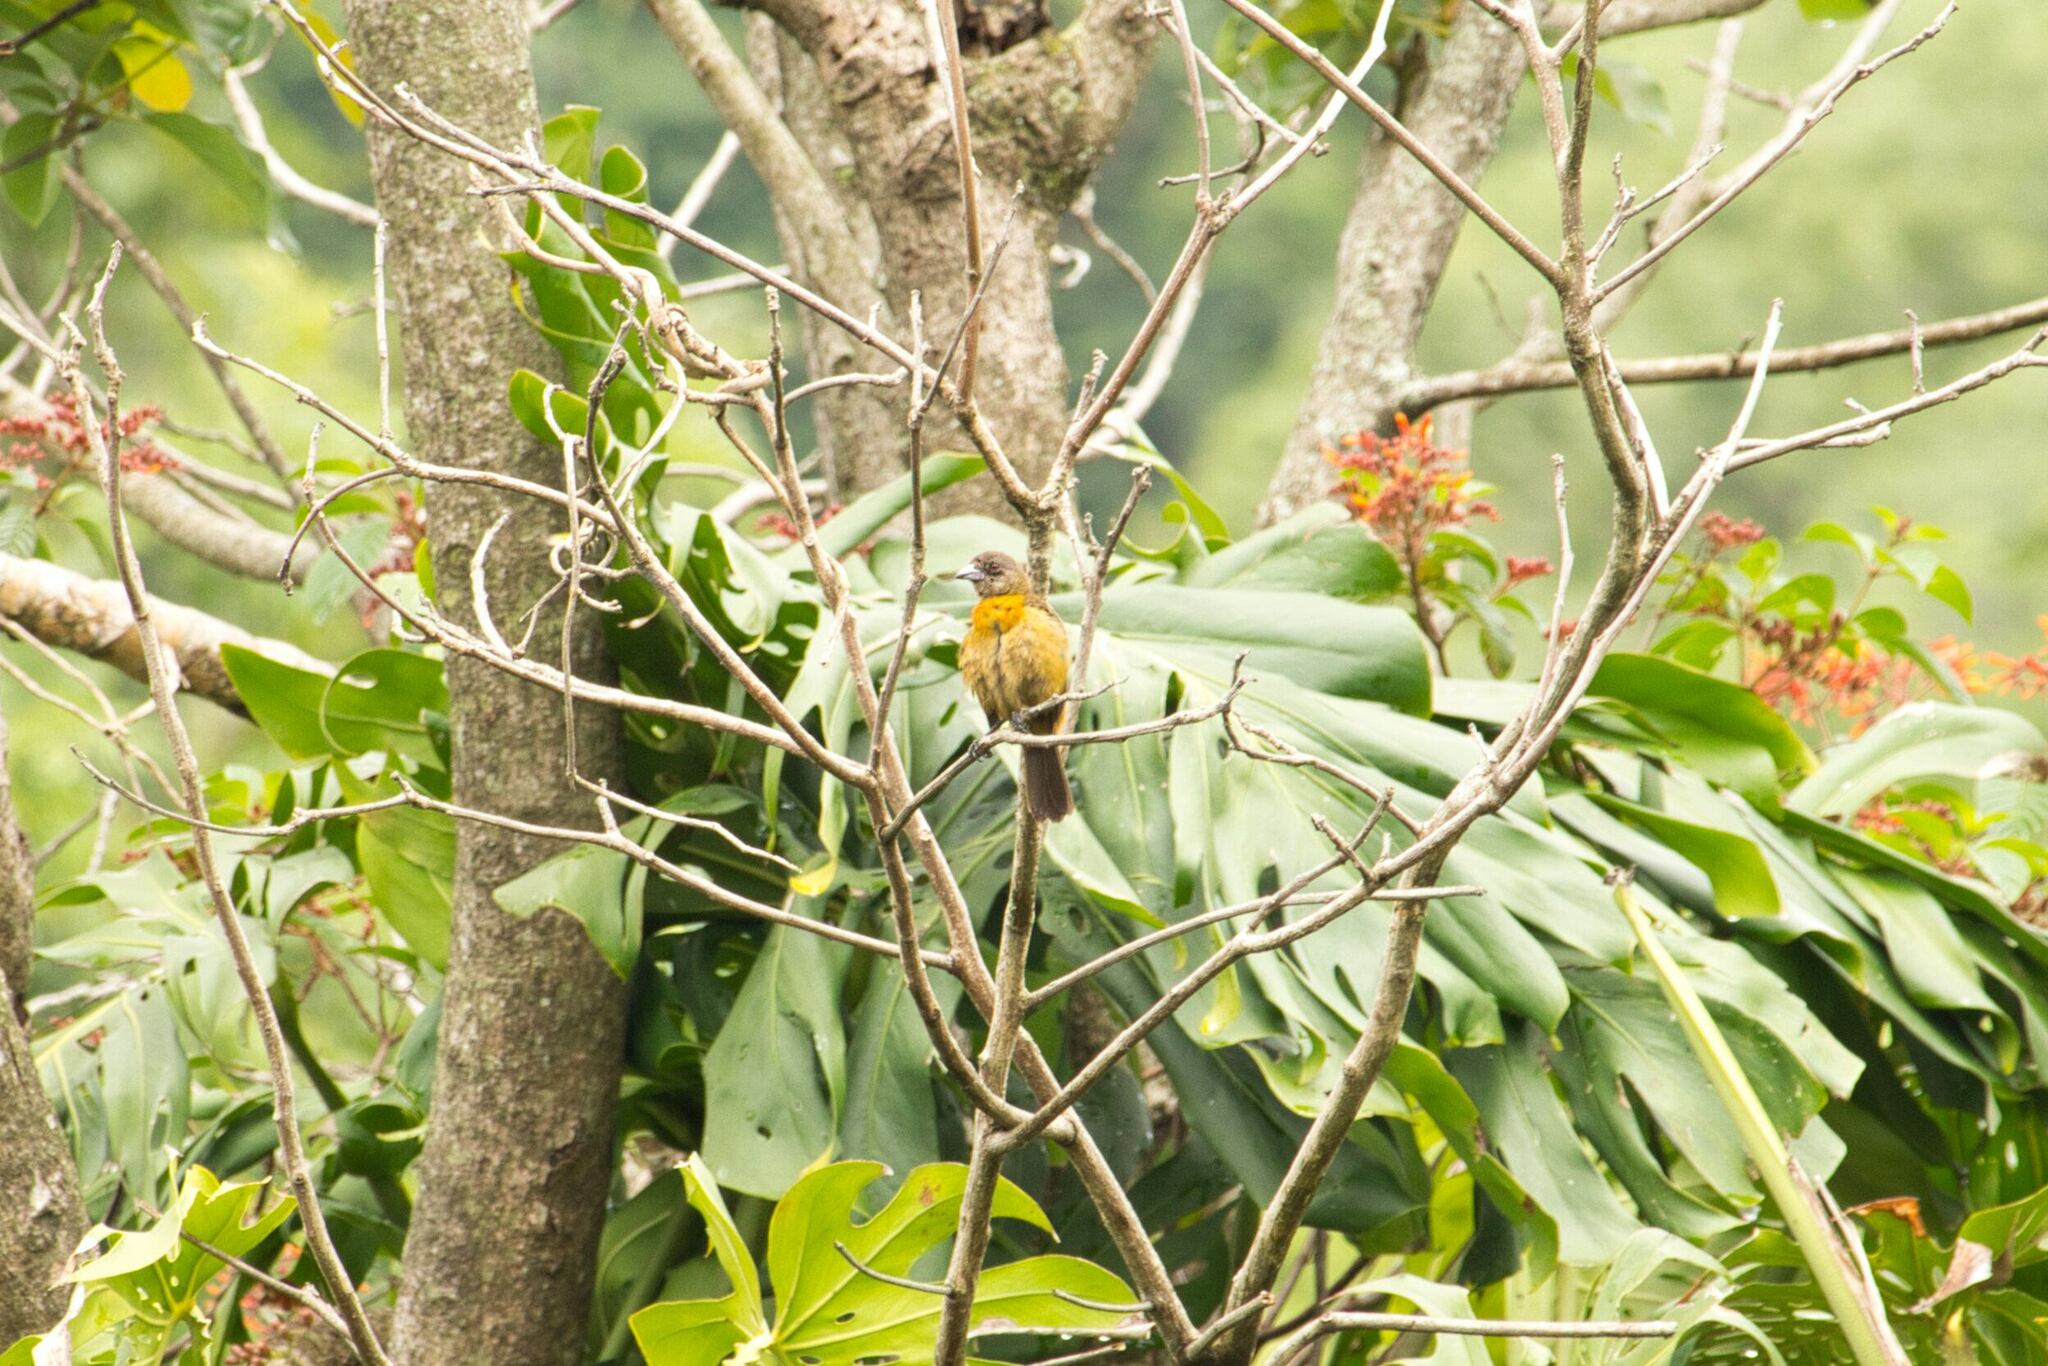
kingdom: Animalia
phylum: Chordata
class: Aves
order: Passeriformes
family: Thraupidae
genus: Ramphocelus
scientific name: Ramphocelus passerinii
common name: Passerini's tanager
